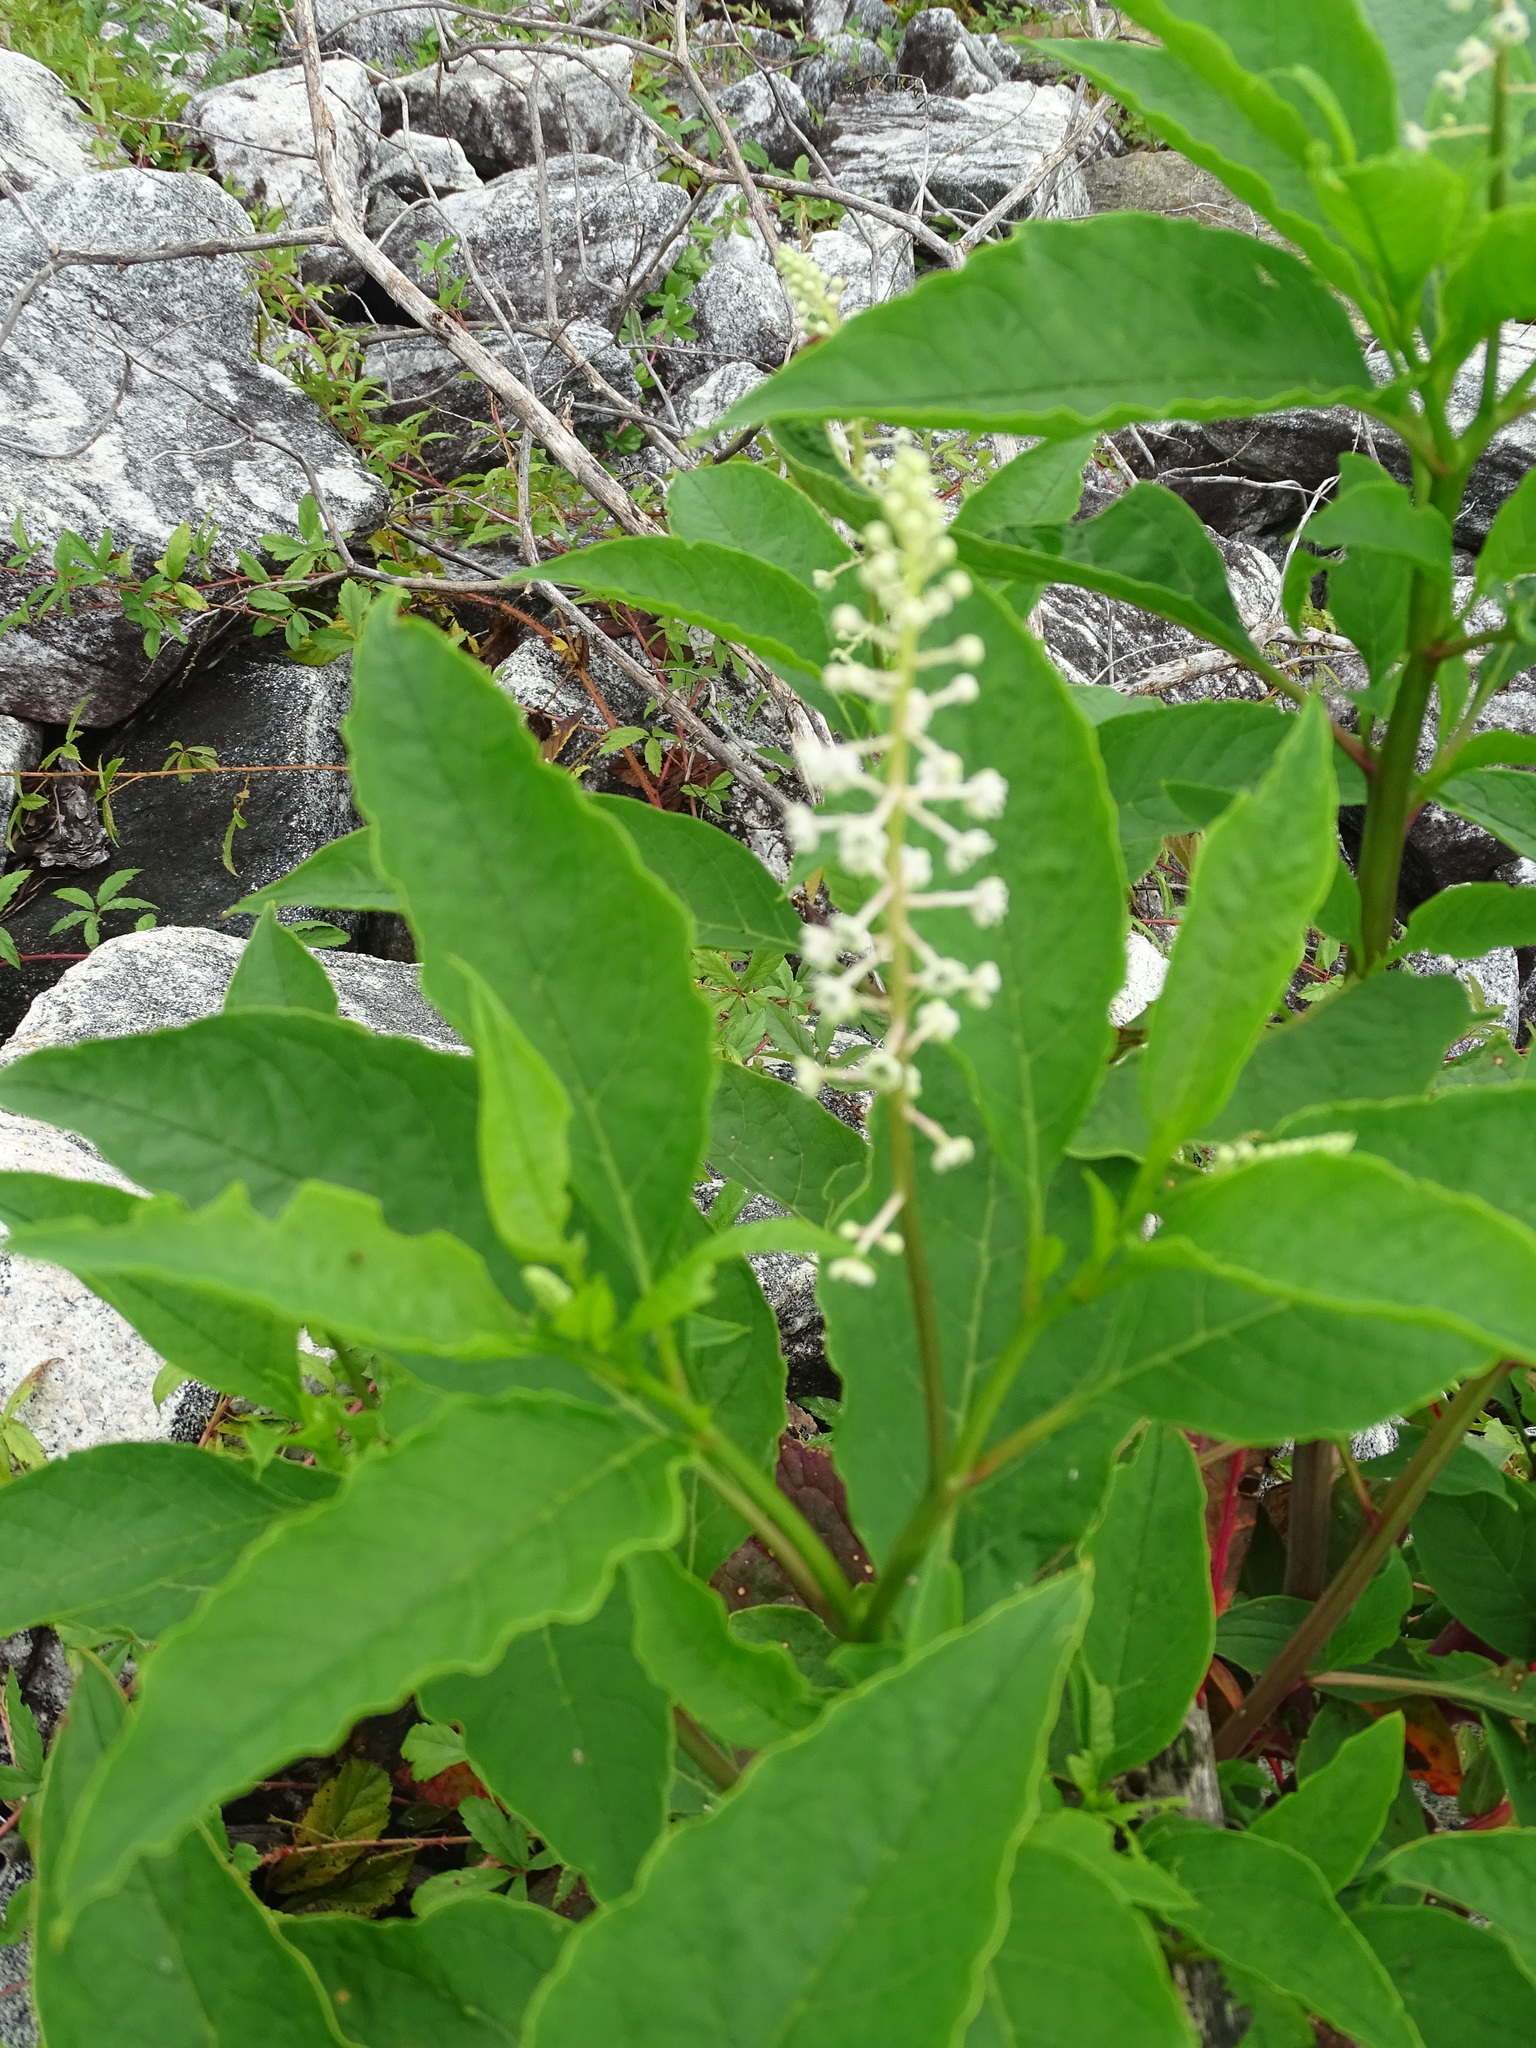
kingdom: Plantae
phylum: Tracheophyta
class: Magnoliopsida
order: Caryophyllales
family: Phytolaccaceae
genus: Phytolacca
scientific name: Phytolacca americana
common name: American pokeweed
